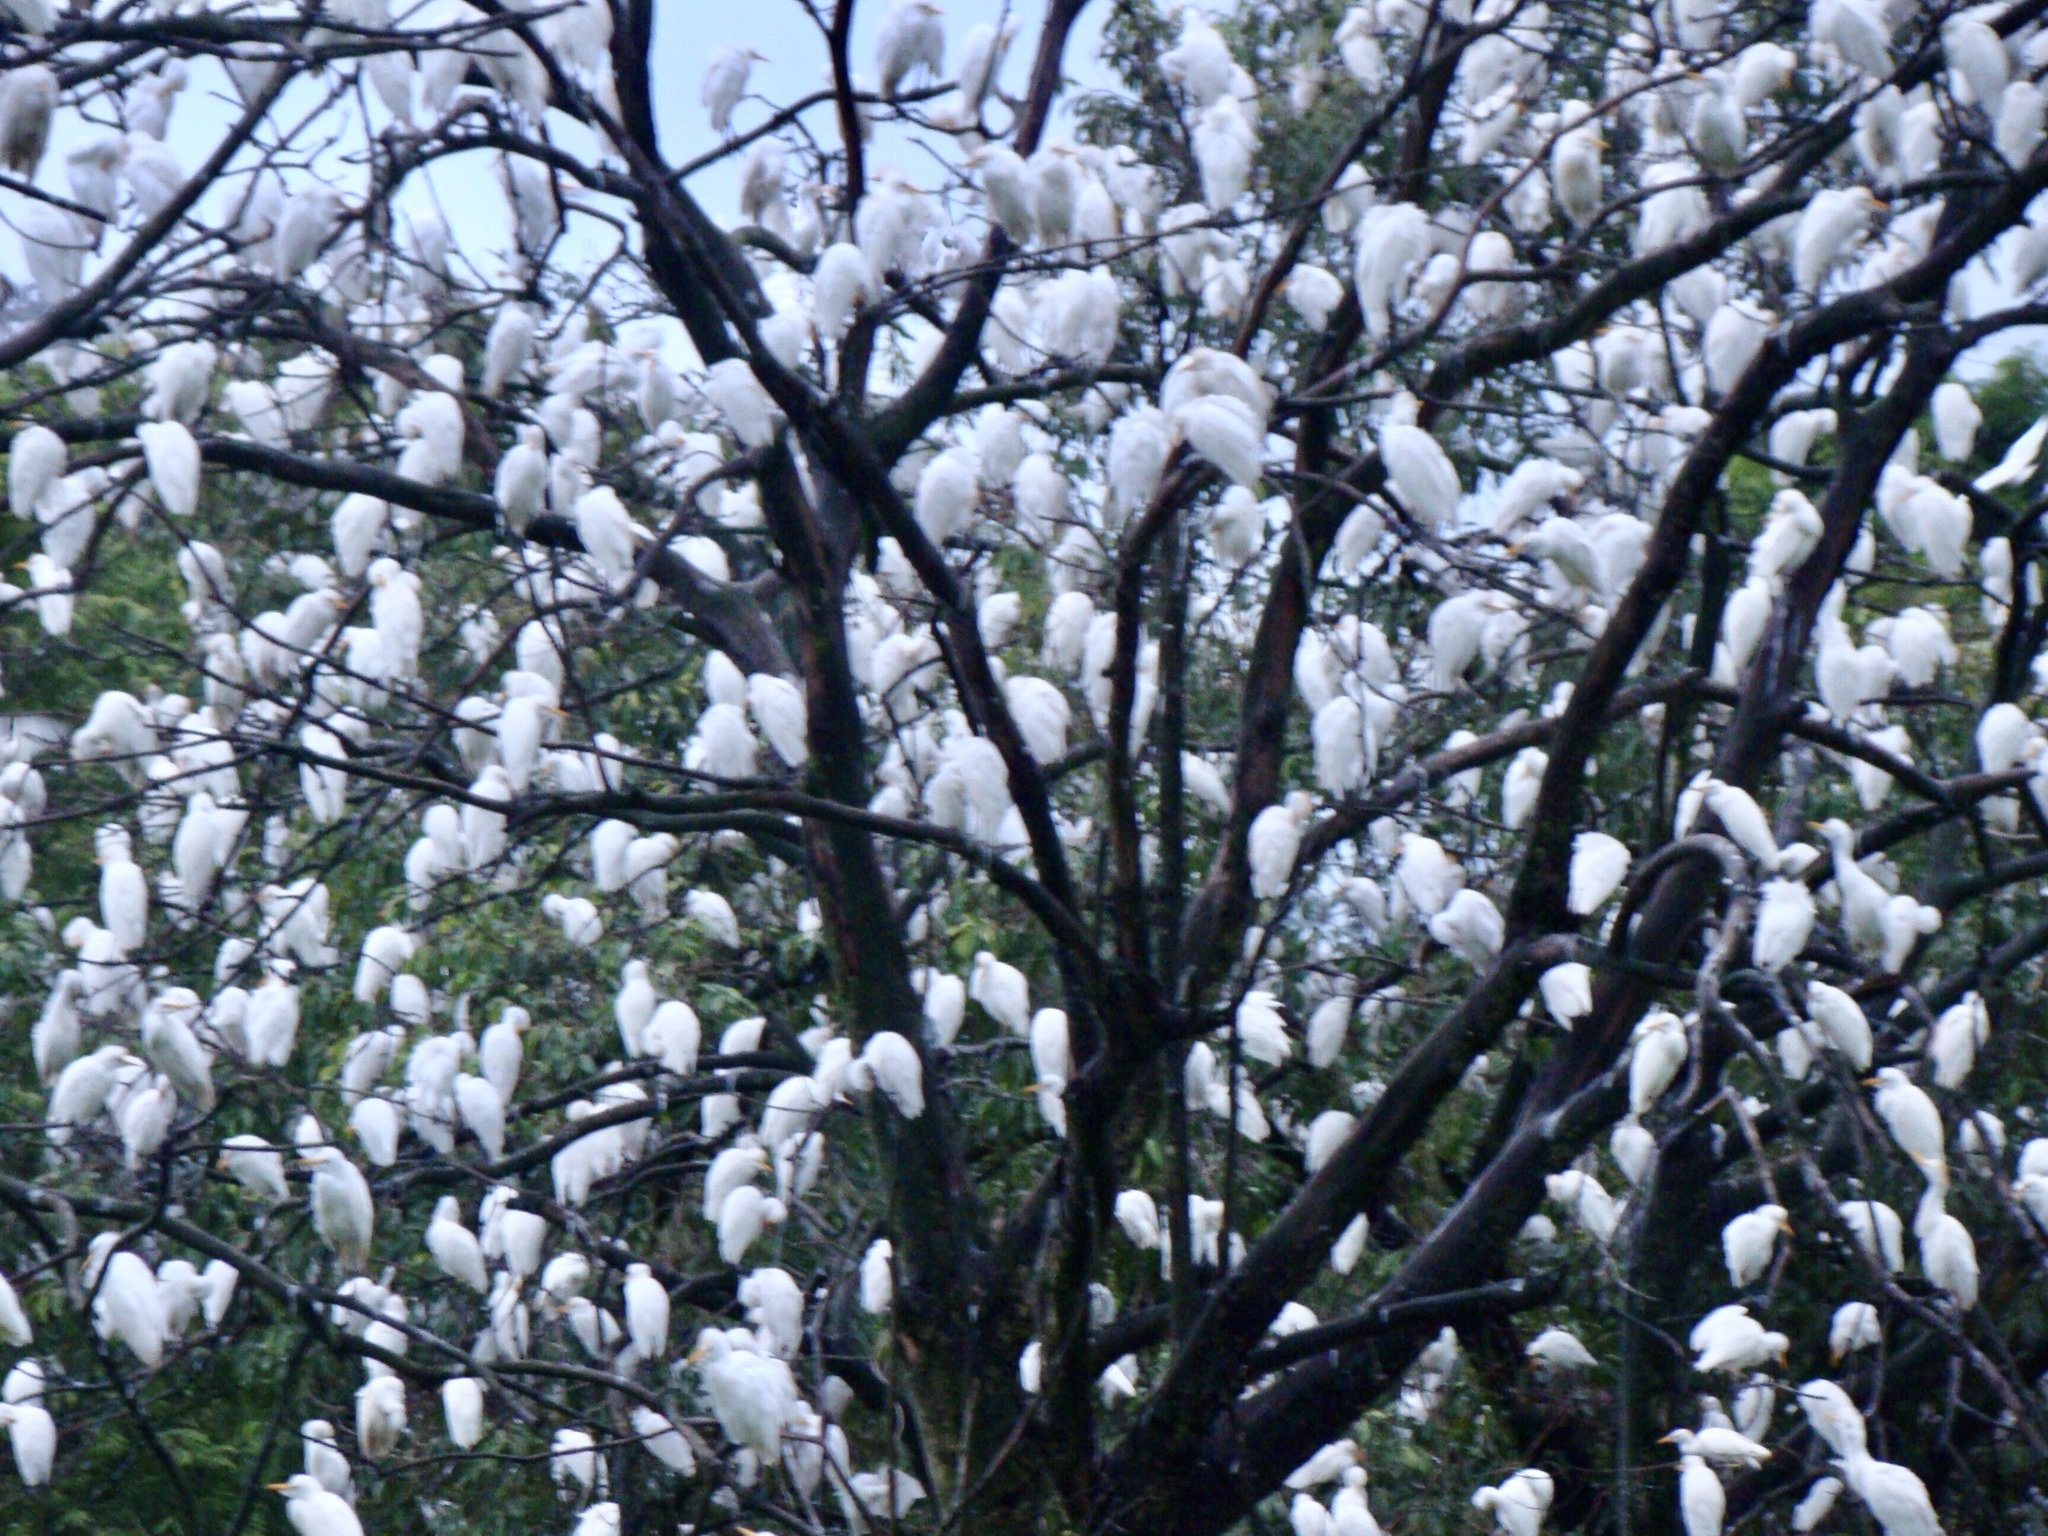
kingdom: Animalia
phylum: Chordata
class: Aves
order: Pelecaniformes
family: Ardeidae
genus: Bubulcus
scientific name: Bubulcus ibis
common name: Cattle egret
